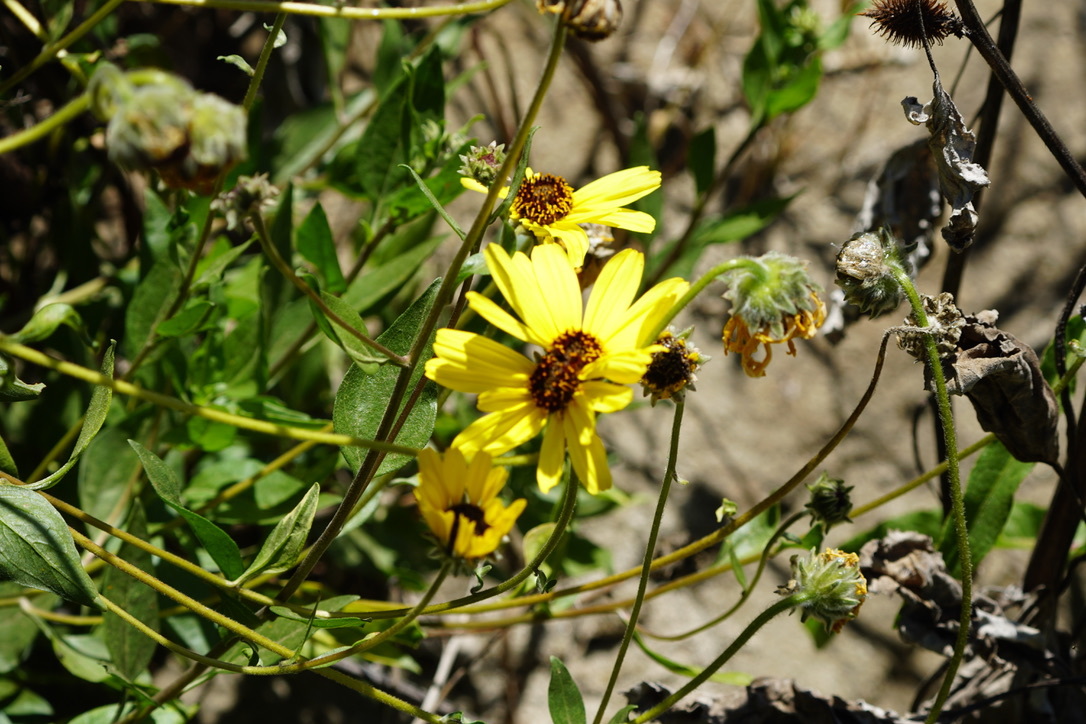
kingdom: Plantae
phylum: Tracheophyta
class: Magnoliopsida
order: Asterales
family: Asteraceae
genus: Encelia
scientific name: Encelia californica
